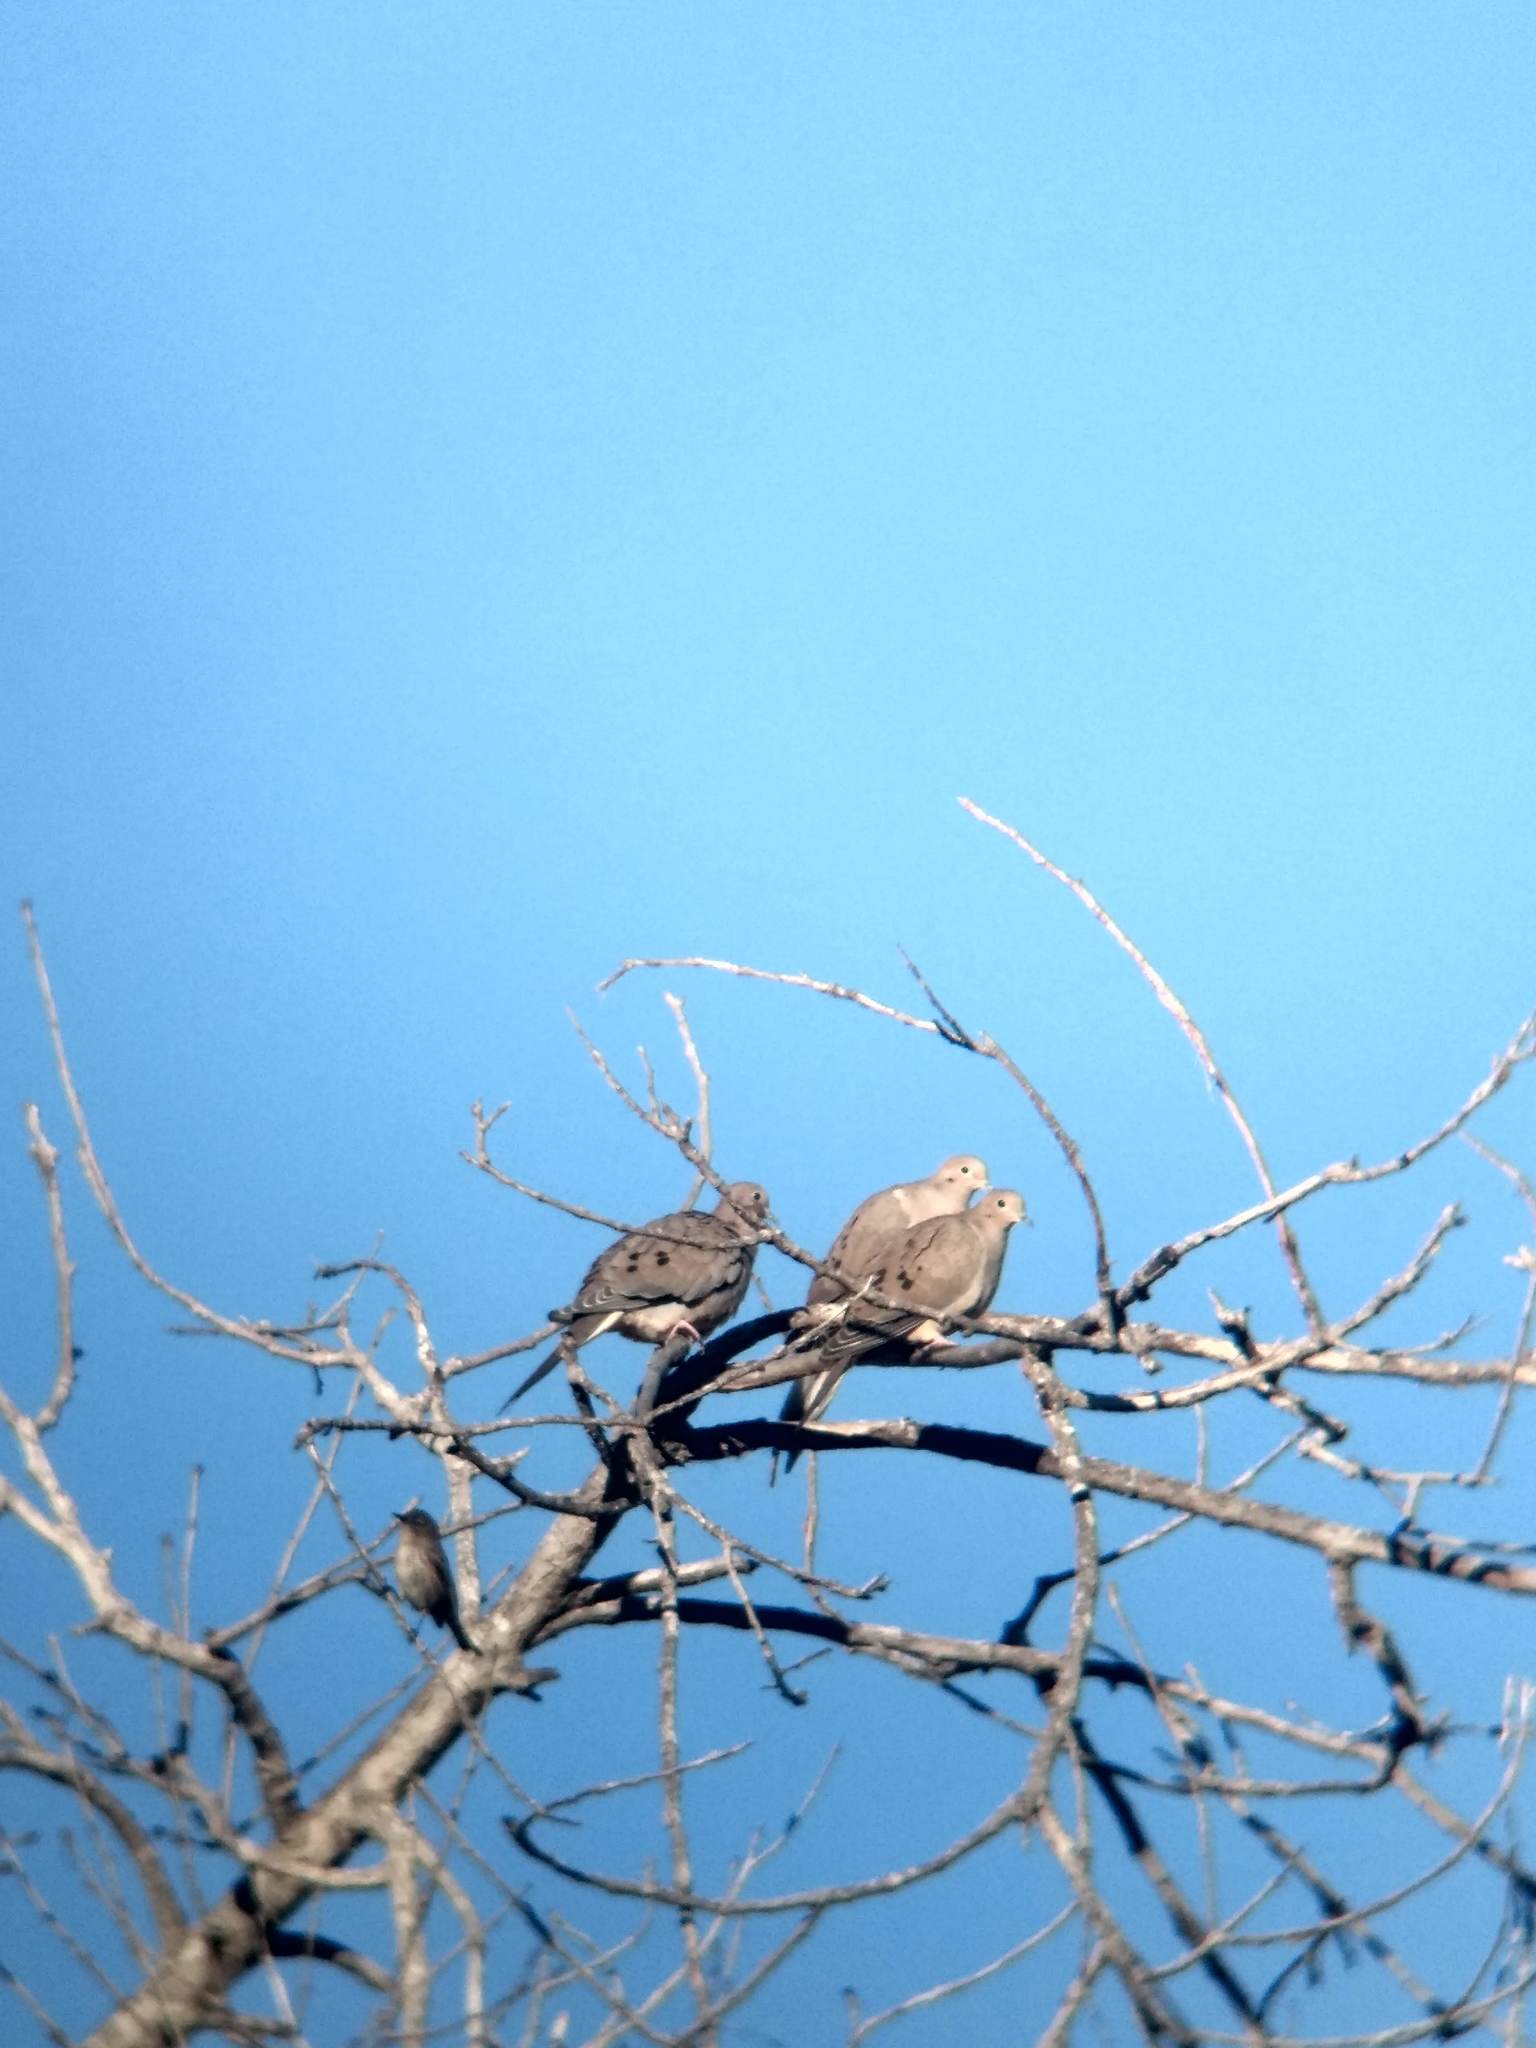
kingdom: Animalia
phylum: Chordata
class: Aves
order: Columbiformes
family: Columbidae
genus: Zenaida
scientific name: Zenaida macroura
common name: Mourning dove
